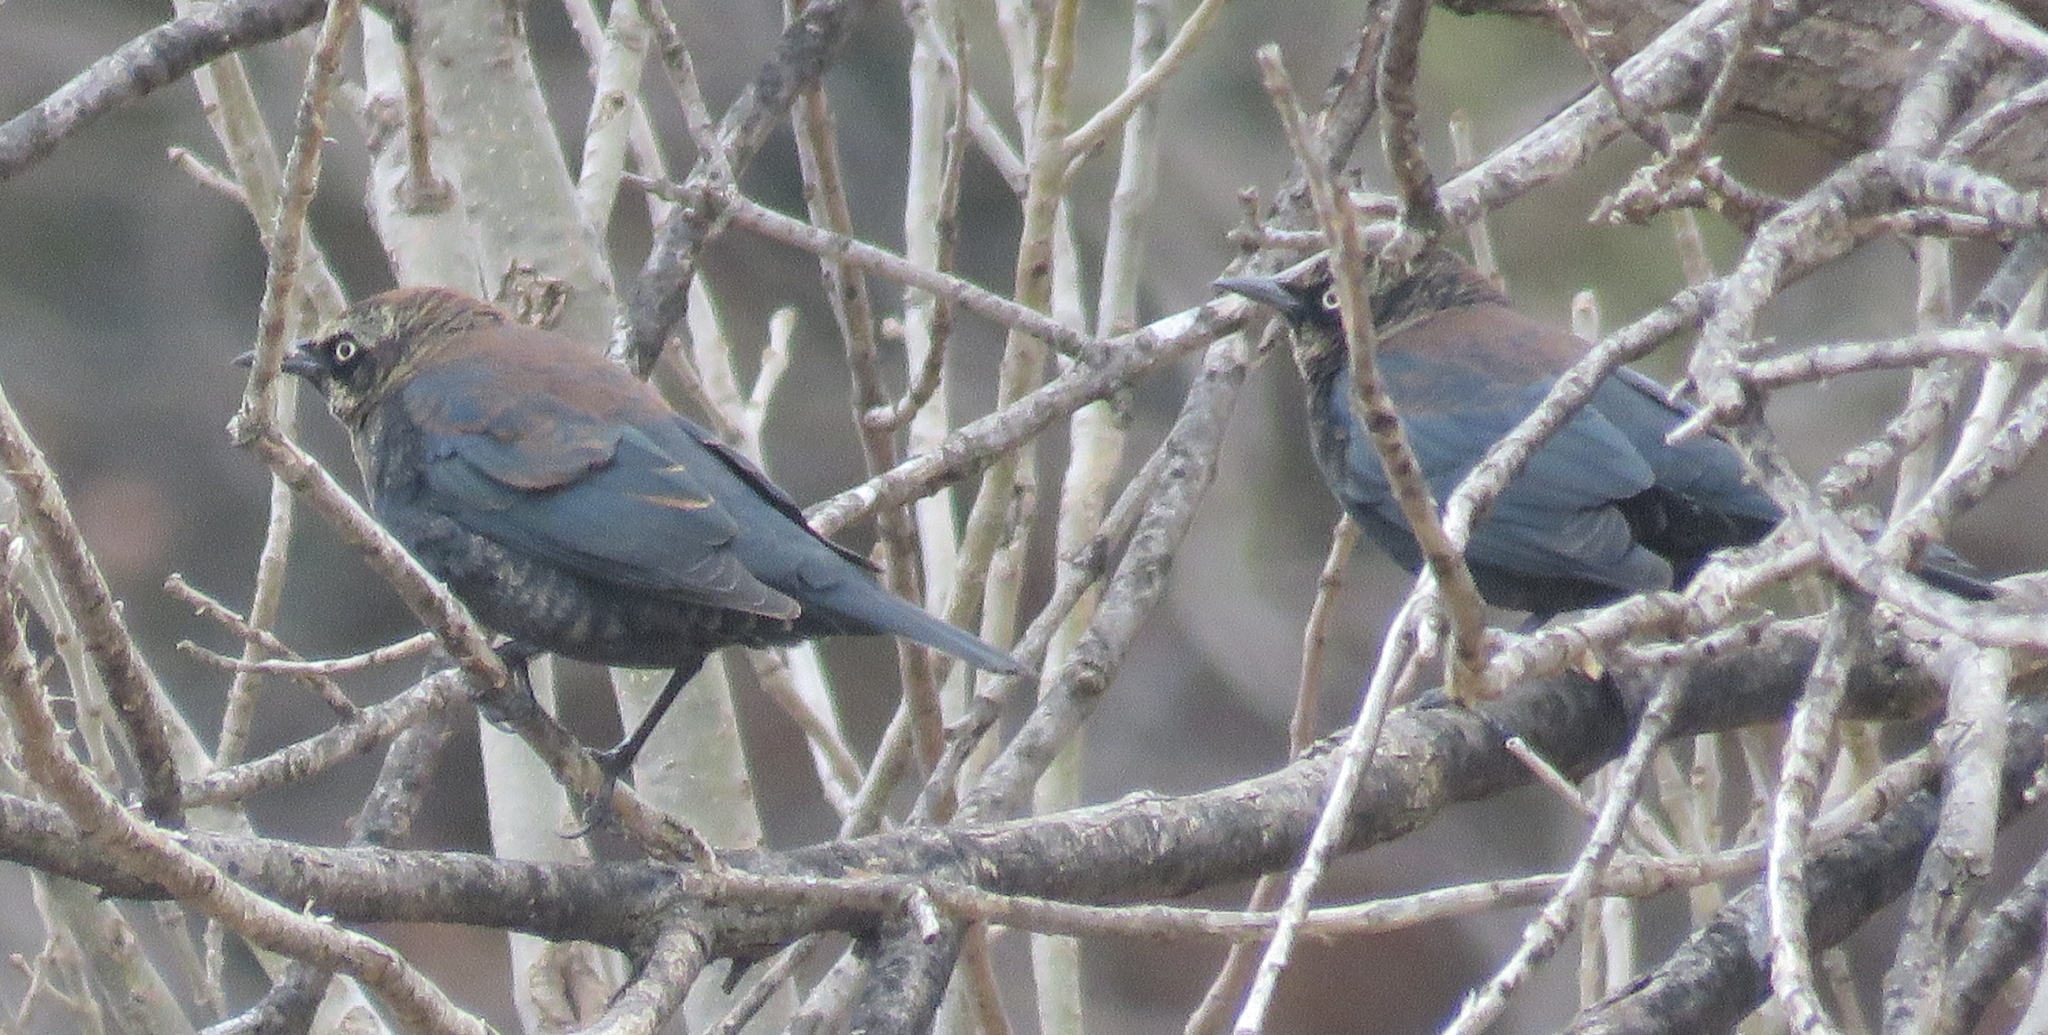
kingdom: Animalia
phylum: Chordata
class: Aves
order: Passeriformes
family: Icteridae
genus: Euphagus
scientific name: Euphagus carolinus
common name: Rusty blackbird
